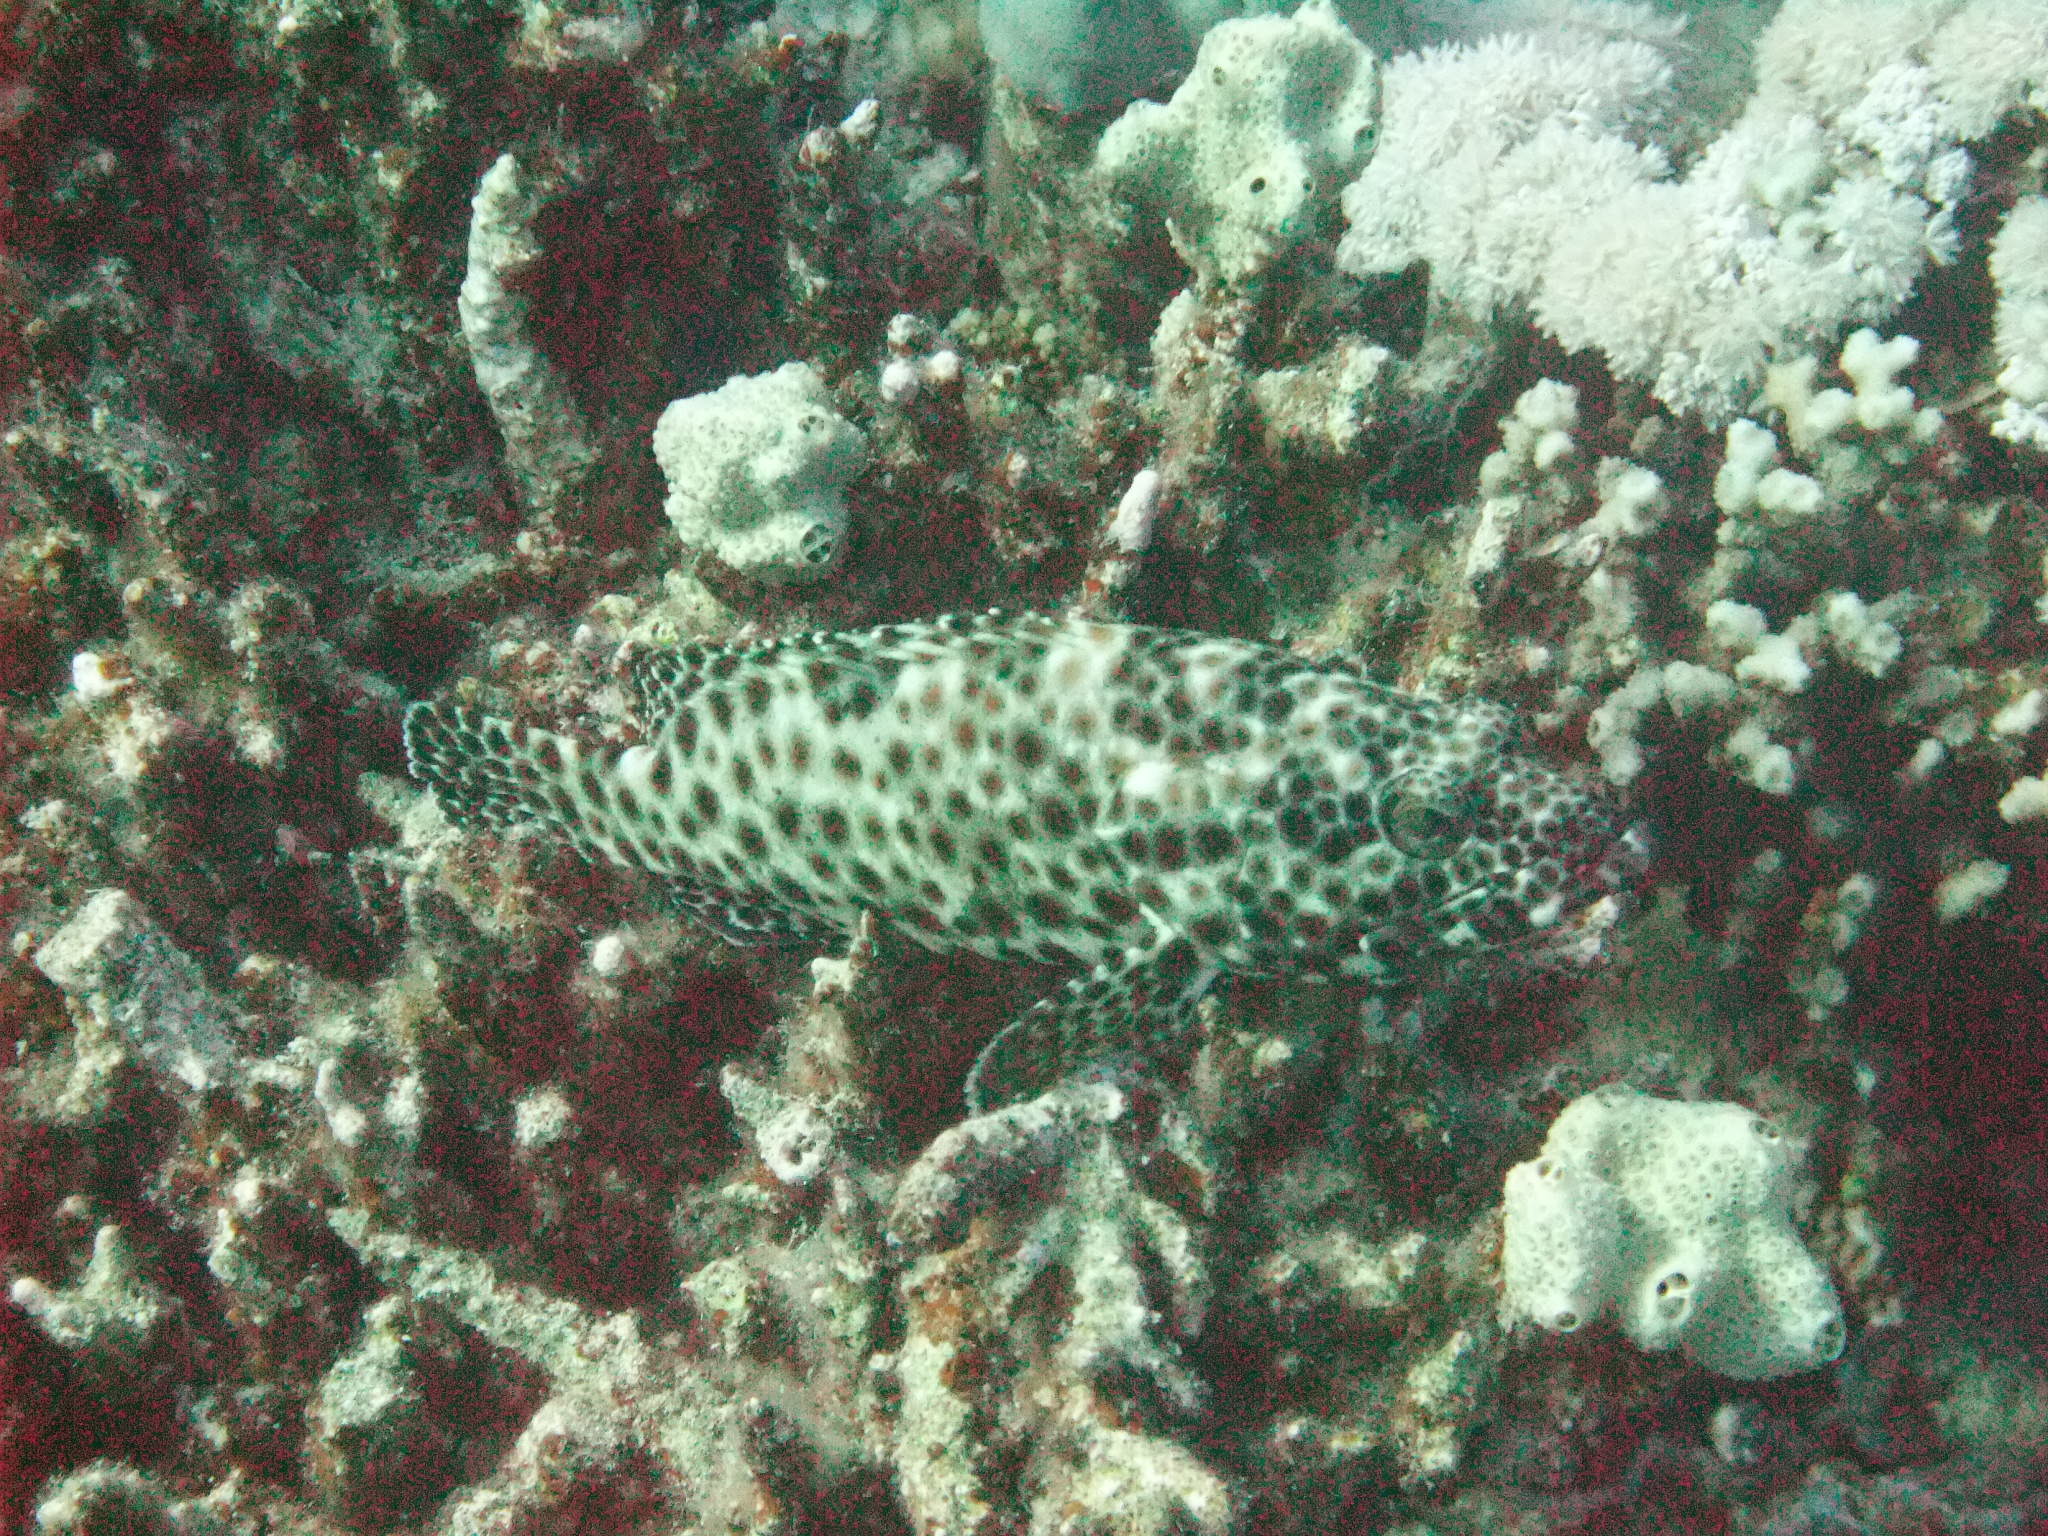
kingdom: Animalia
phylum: Chordata
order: Perciformes
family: Serranidae
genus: Epinephelus
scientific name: Epinephelus tauvina
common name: Greasy grouper
